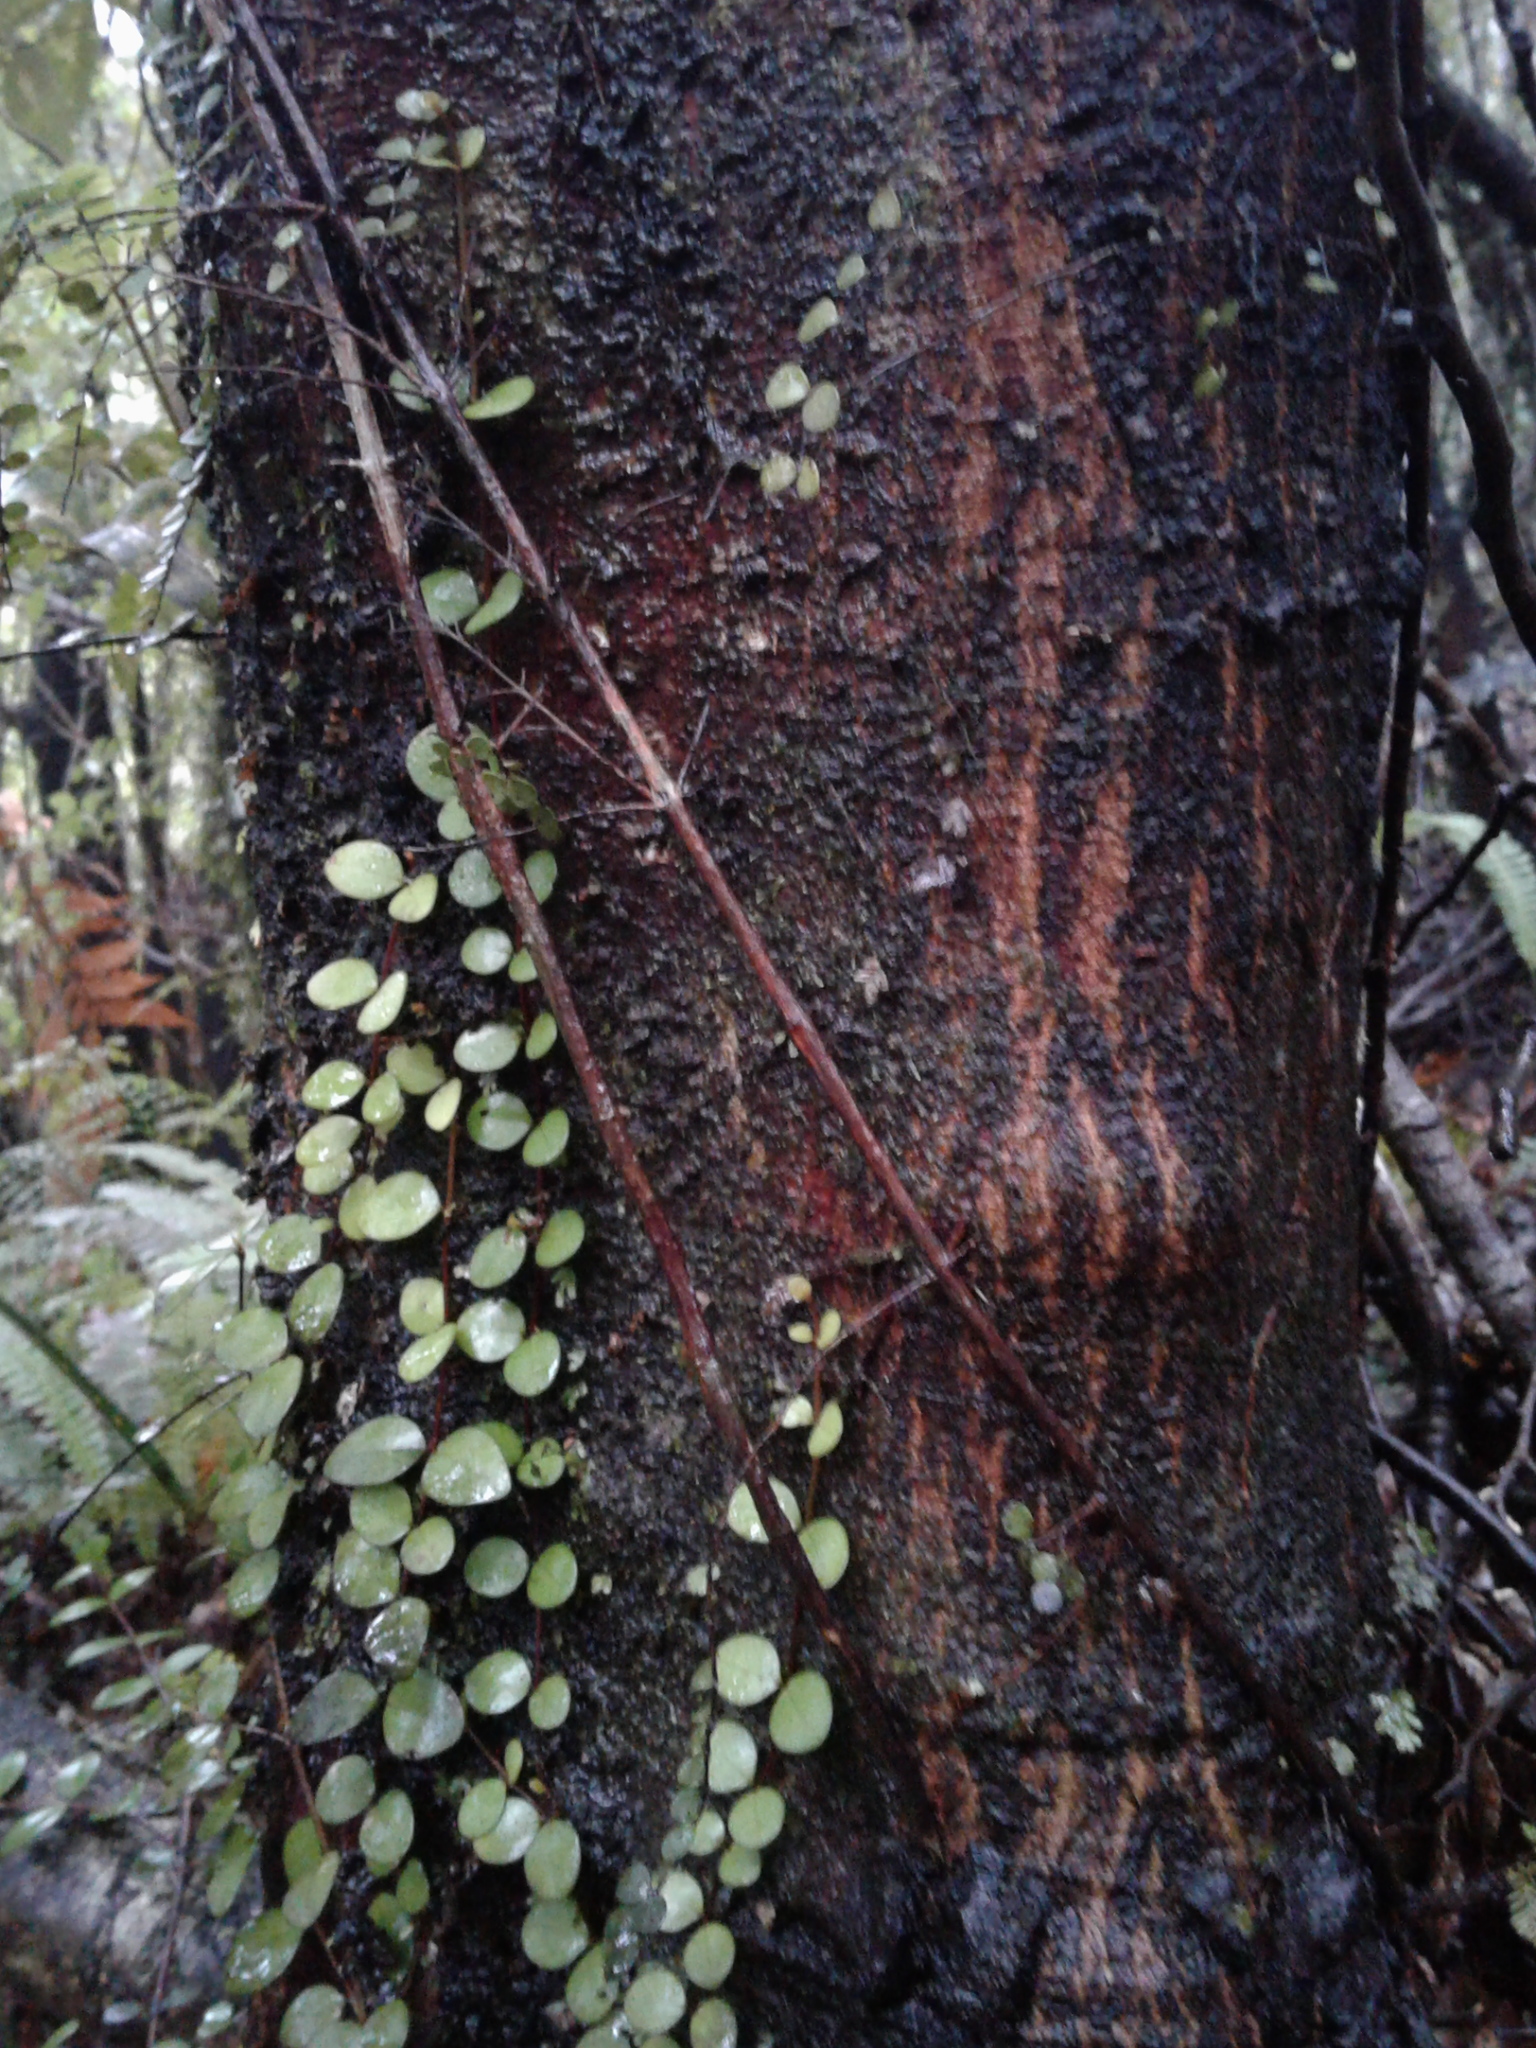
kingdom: Plantae
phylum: Tracheophyta
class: Magnoliopsida
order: Myrtales
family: Myrtaceae
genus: Metrosideros
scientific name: Metrosideros fulgens
